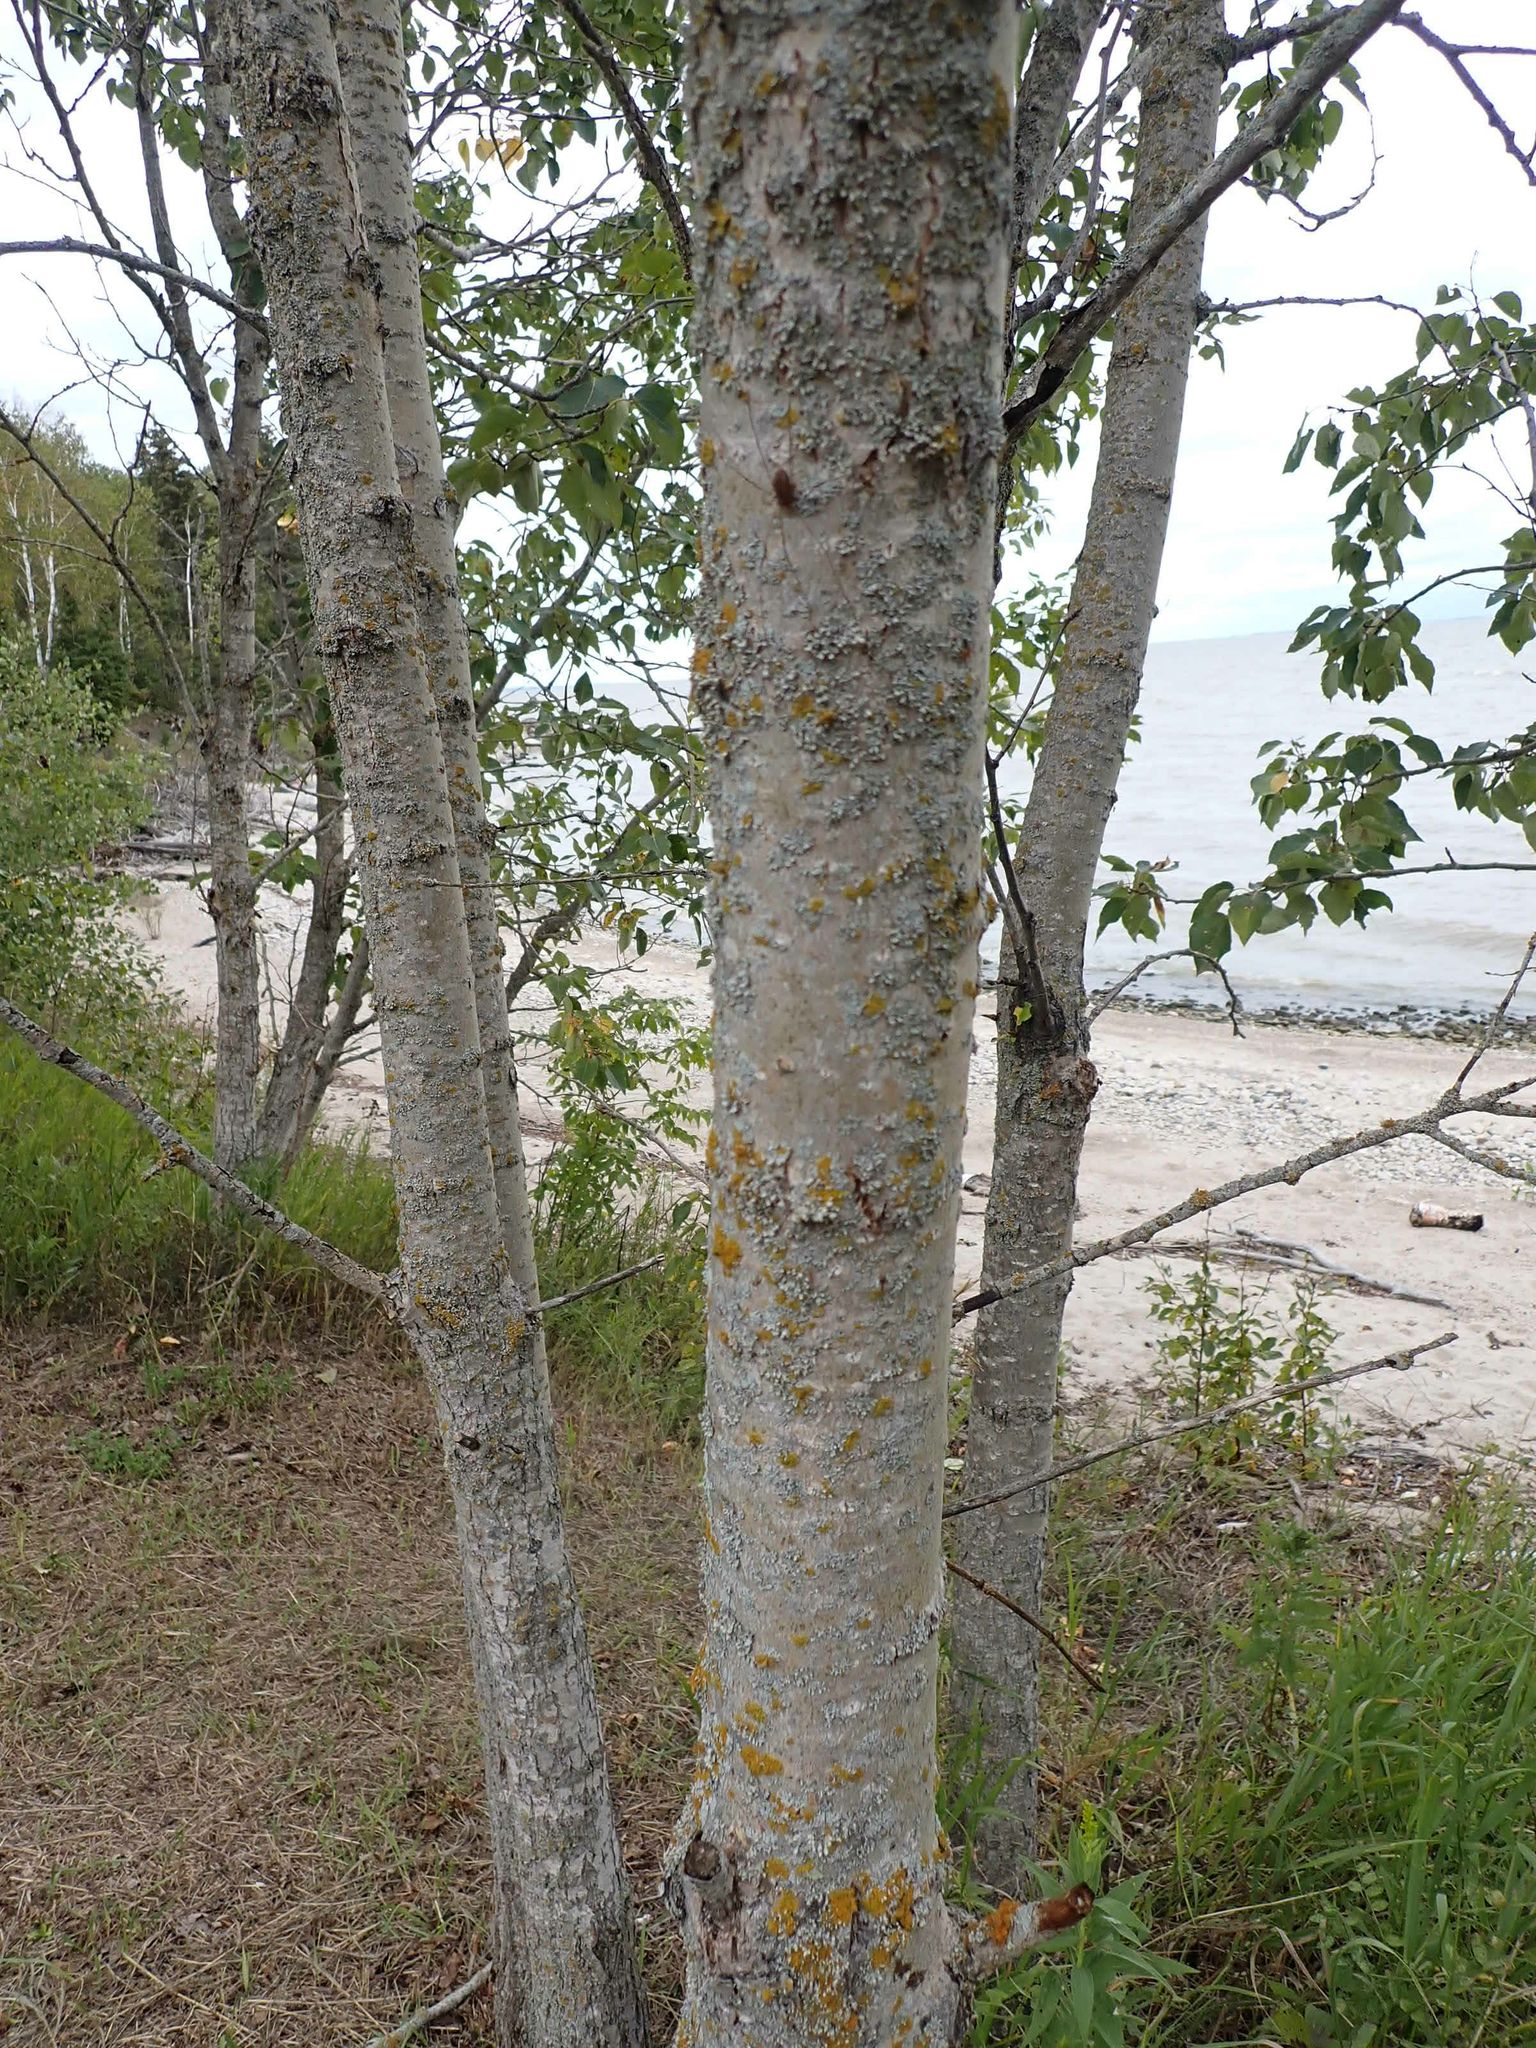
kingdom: Plantae
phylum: Tracheophyta
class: Magnoliopsida
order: Malpighiales
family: Salicaceae
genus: Populus
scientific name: Populus balsamifera
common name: Balsam poplar
